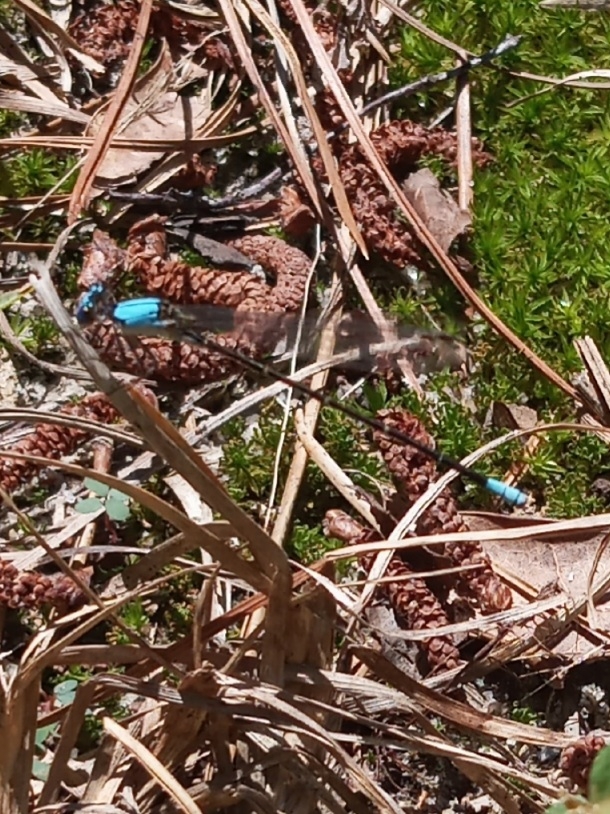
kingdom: Animalia
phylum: Arthropoda
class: Insecta
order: Odonata
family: Coenagrionidae
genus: Argia
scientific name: Argia apicalis
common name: Blue-fronted dancer
